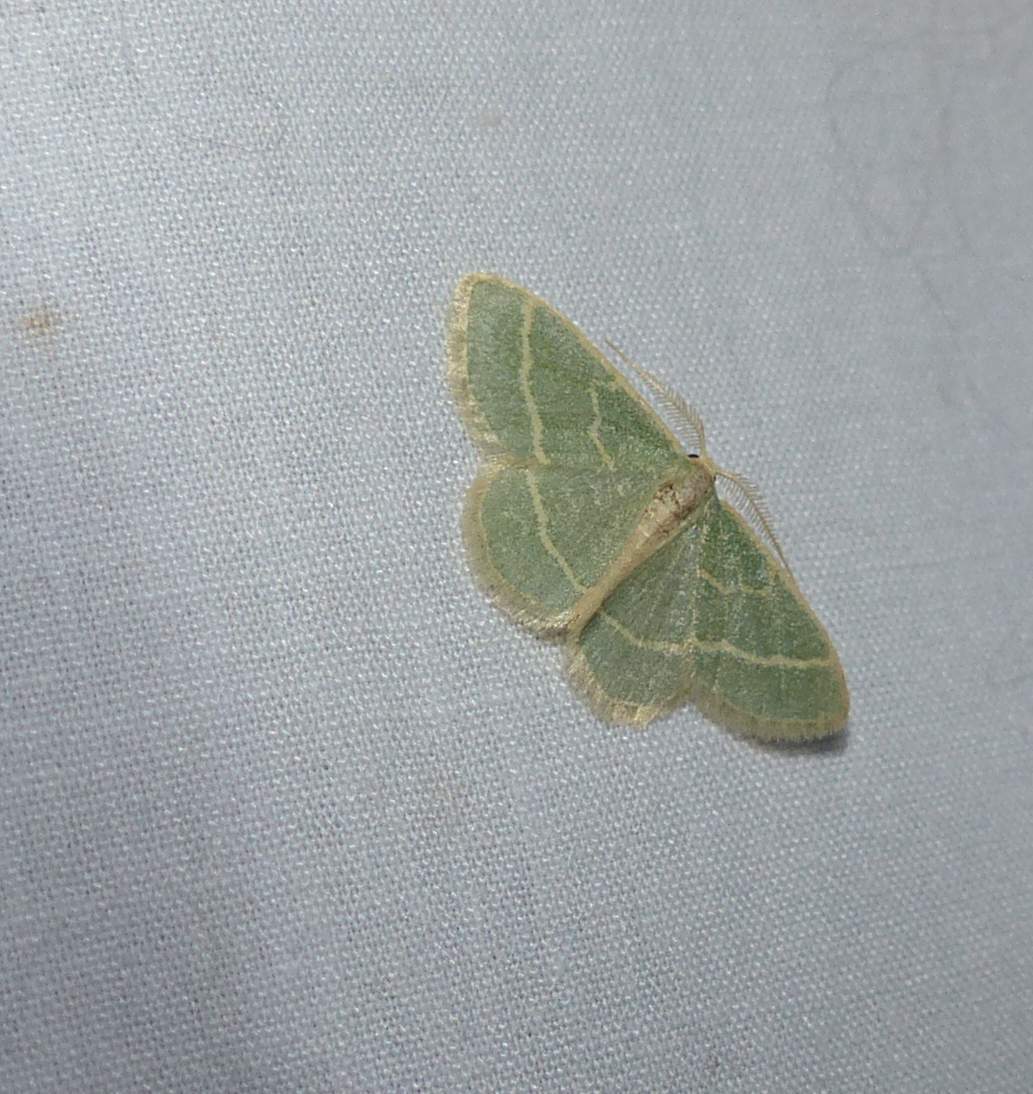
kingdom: Animalia
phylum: Arthropoda
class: Insecta
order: Lepidoptera
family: Geometridae
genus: Chlorochlamys
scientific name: Chlorochlamys chloroleucaria
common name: Blackberry looper
